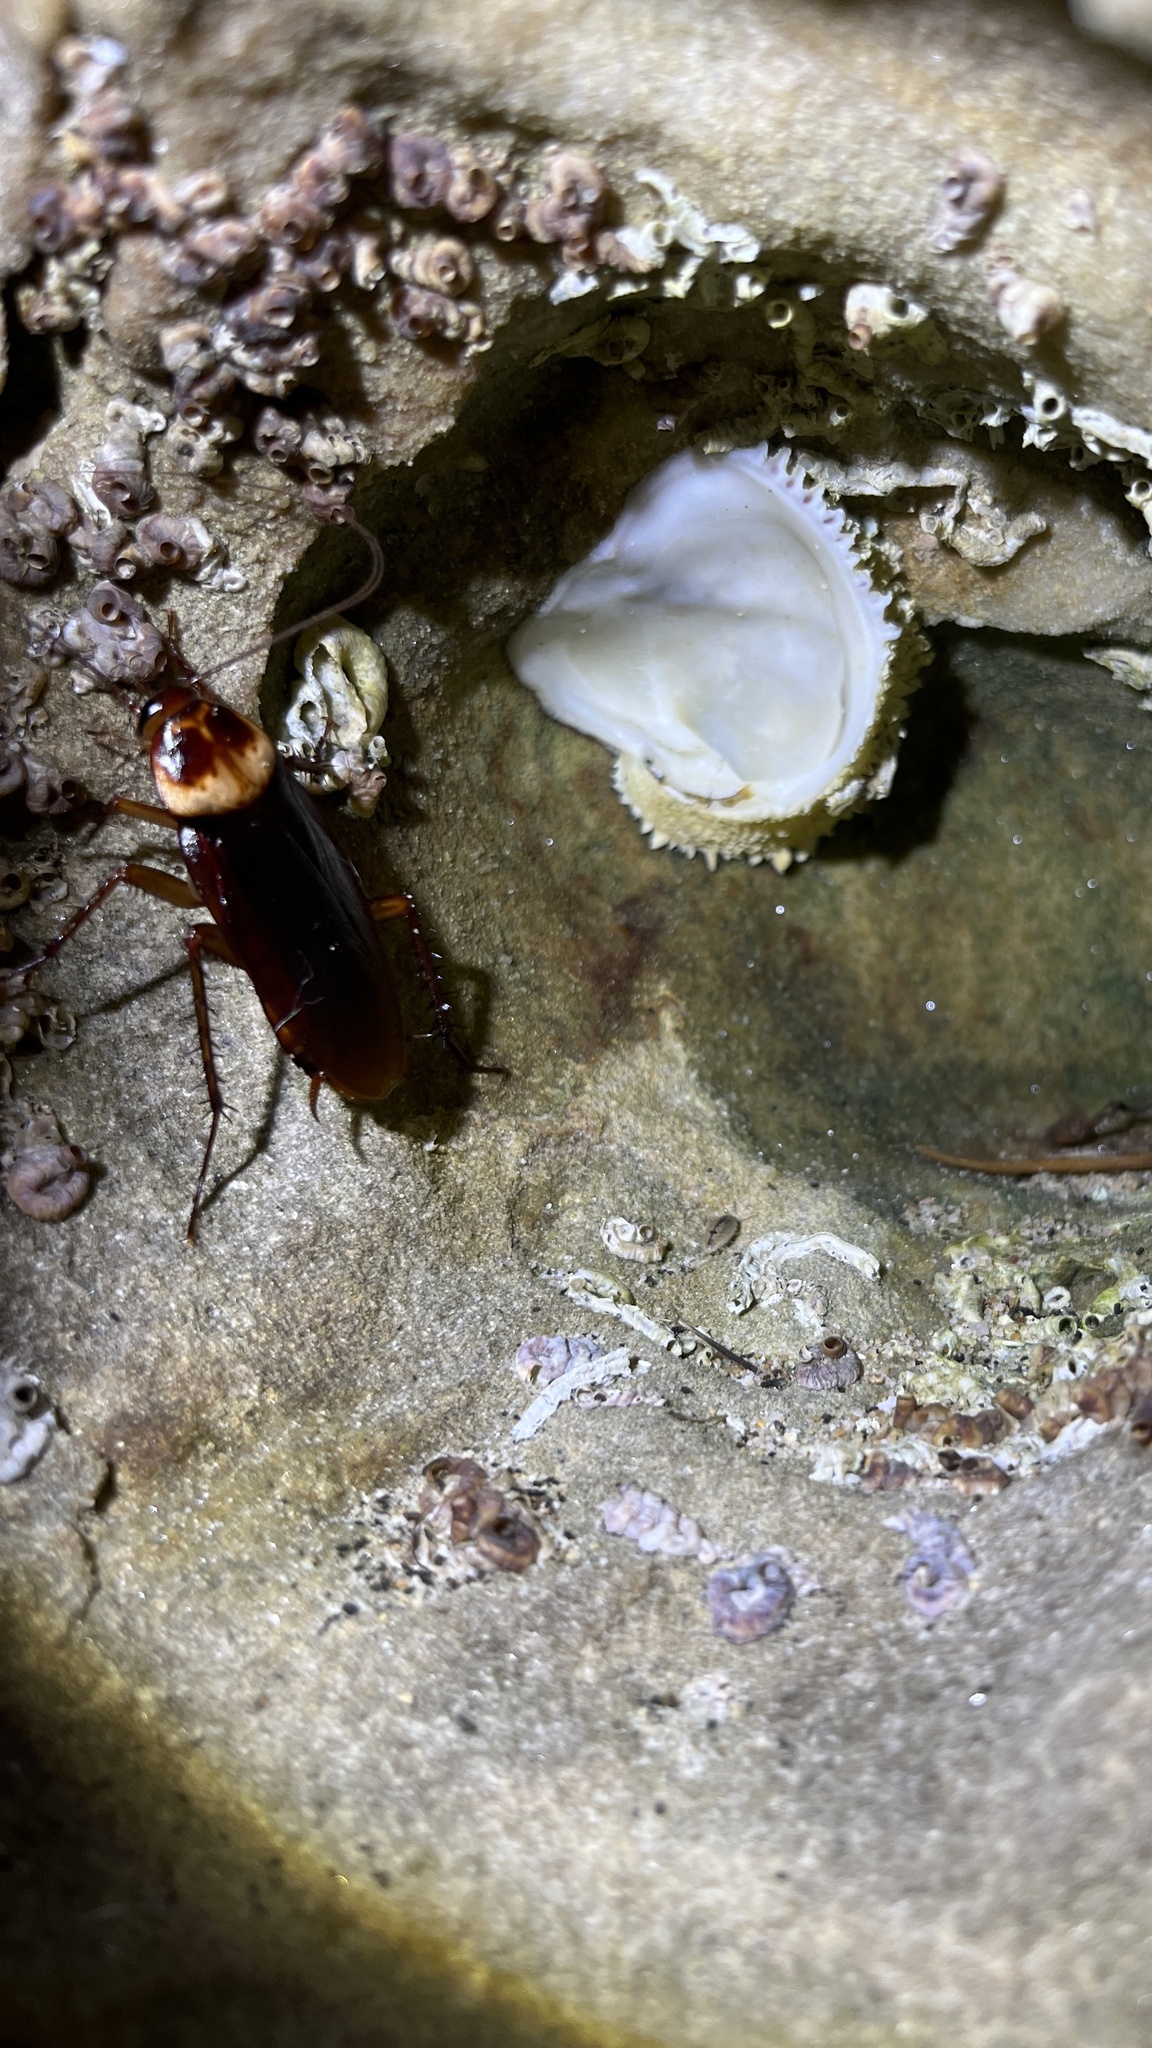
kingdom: Animalia
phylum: Arthropoda
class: Insecta
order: Blattodea
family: Blattidae
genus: Periplaneta
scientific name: Periplaneta americana
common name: American cockroach
